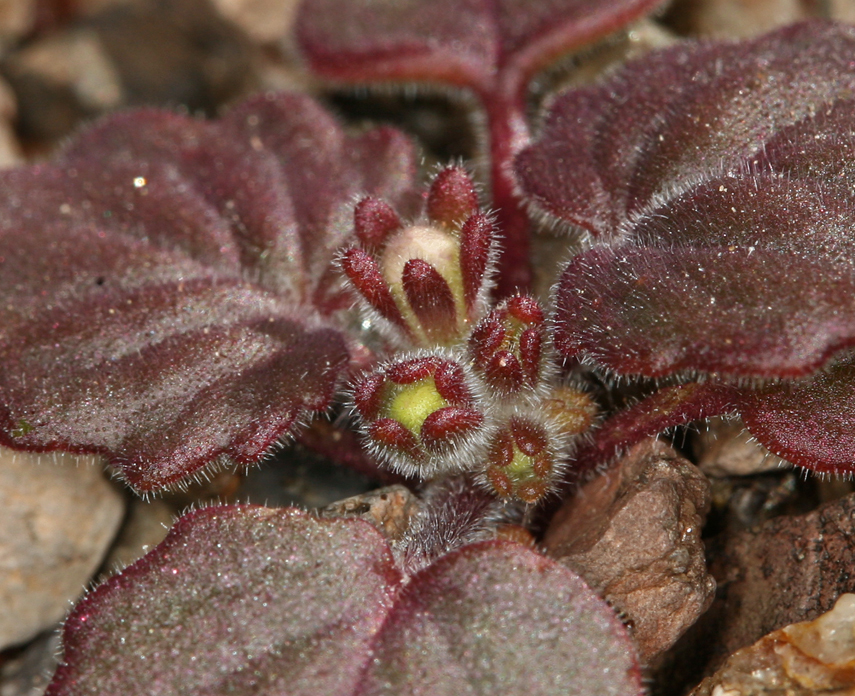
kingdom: Plantae
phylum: Tracheophyta
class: Magnoliopsida
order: Boraginales
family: Hydrophyllaceae
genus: Phacelia
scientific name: Phacelia neglecta
